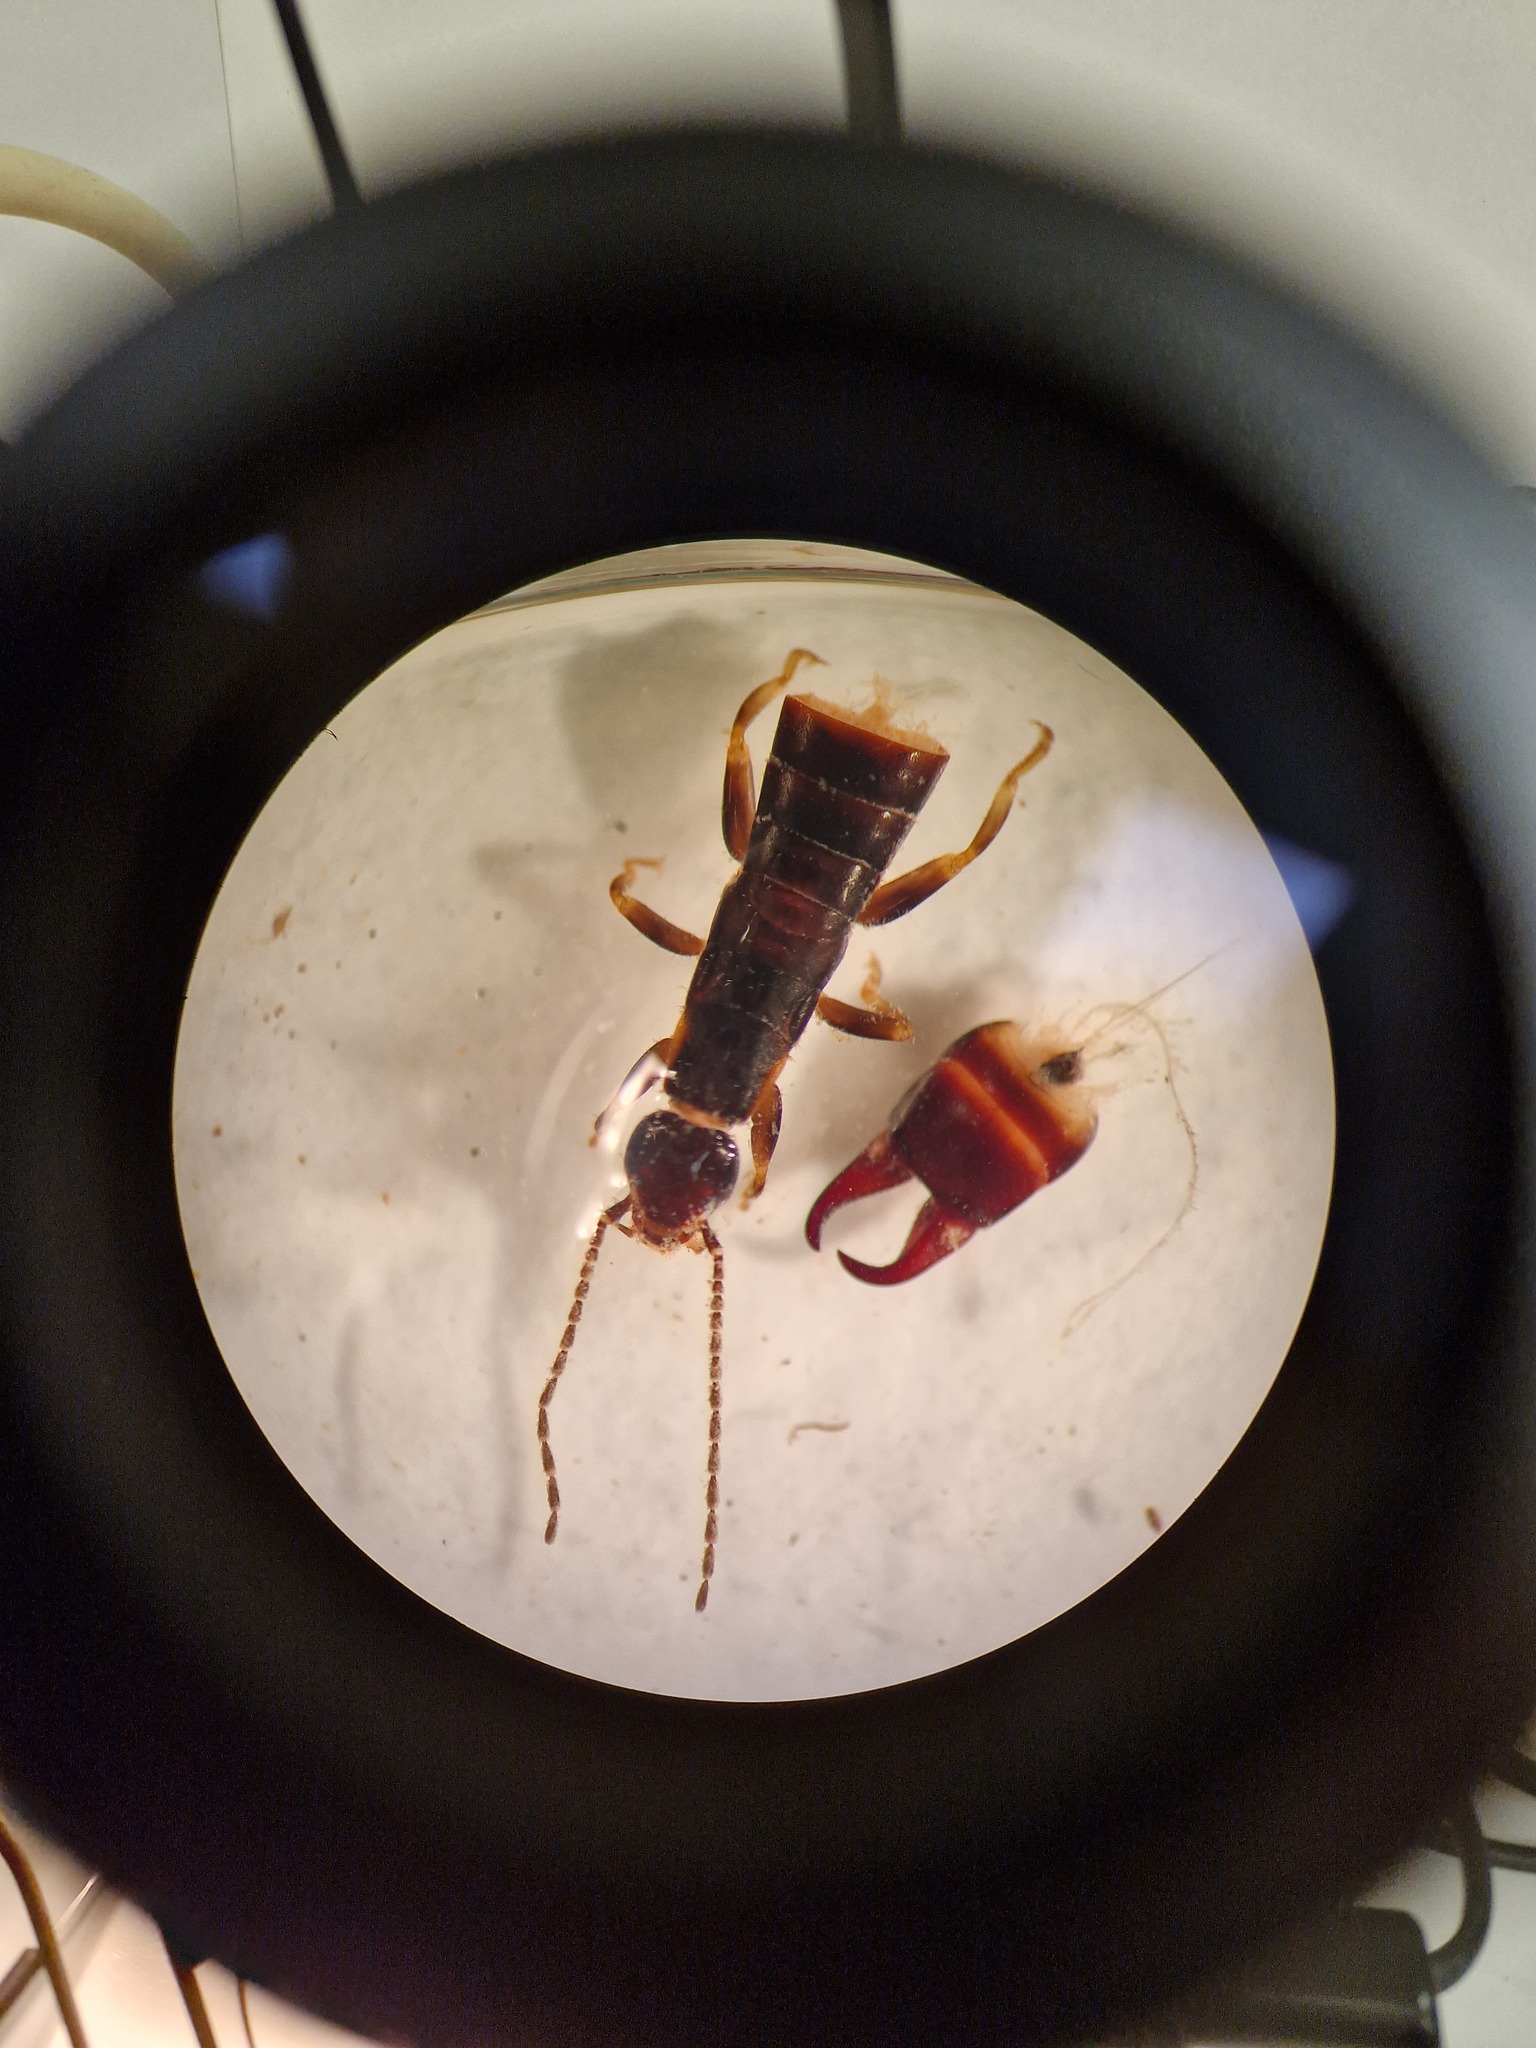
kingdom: Animalia
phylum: Arthropoda
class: Insecta
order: Dermaptera
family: Anisolabididae
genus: Euborellia
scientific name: Euborellia moesta
